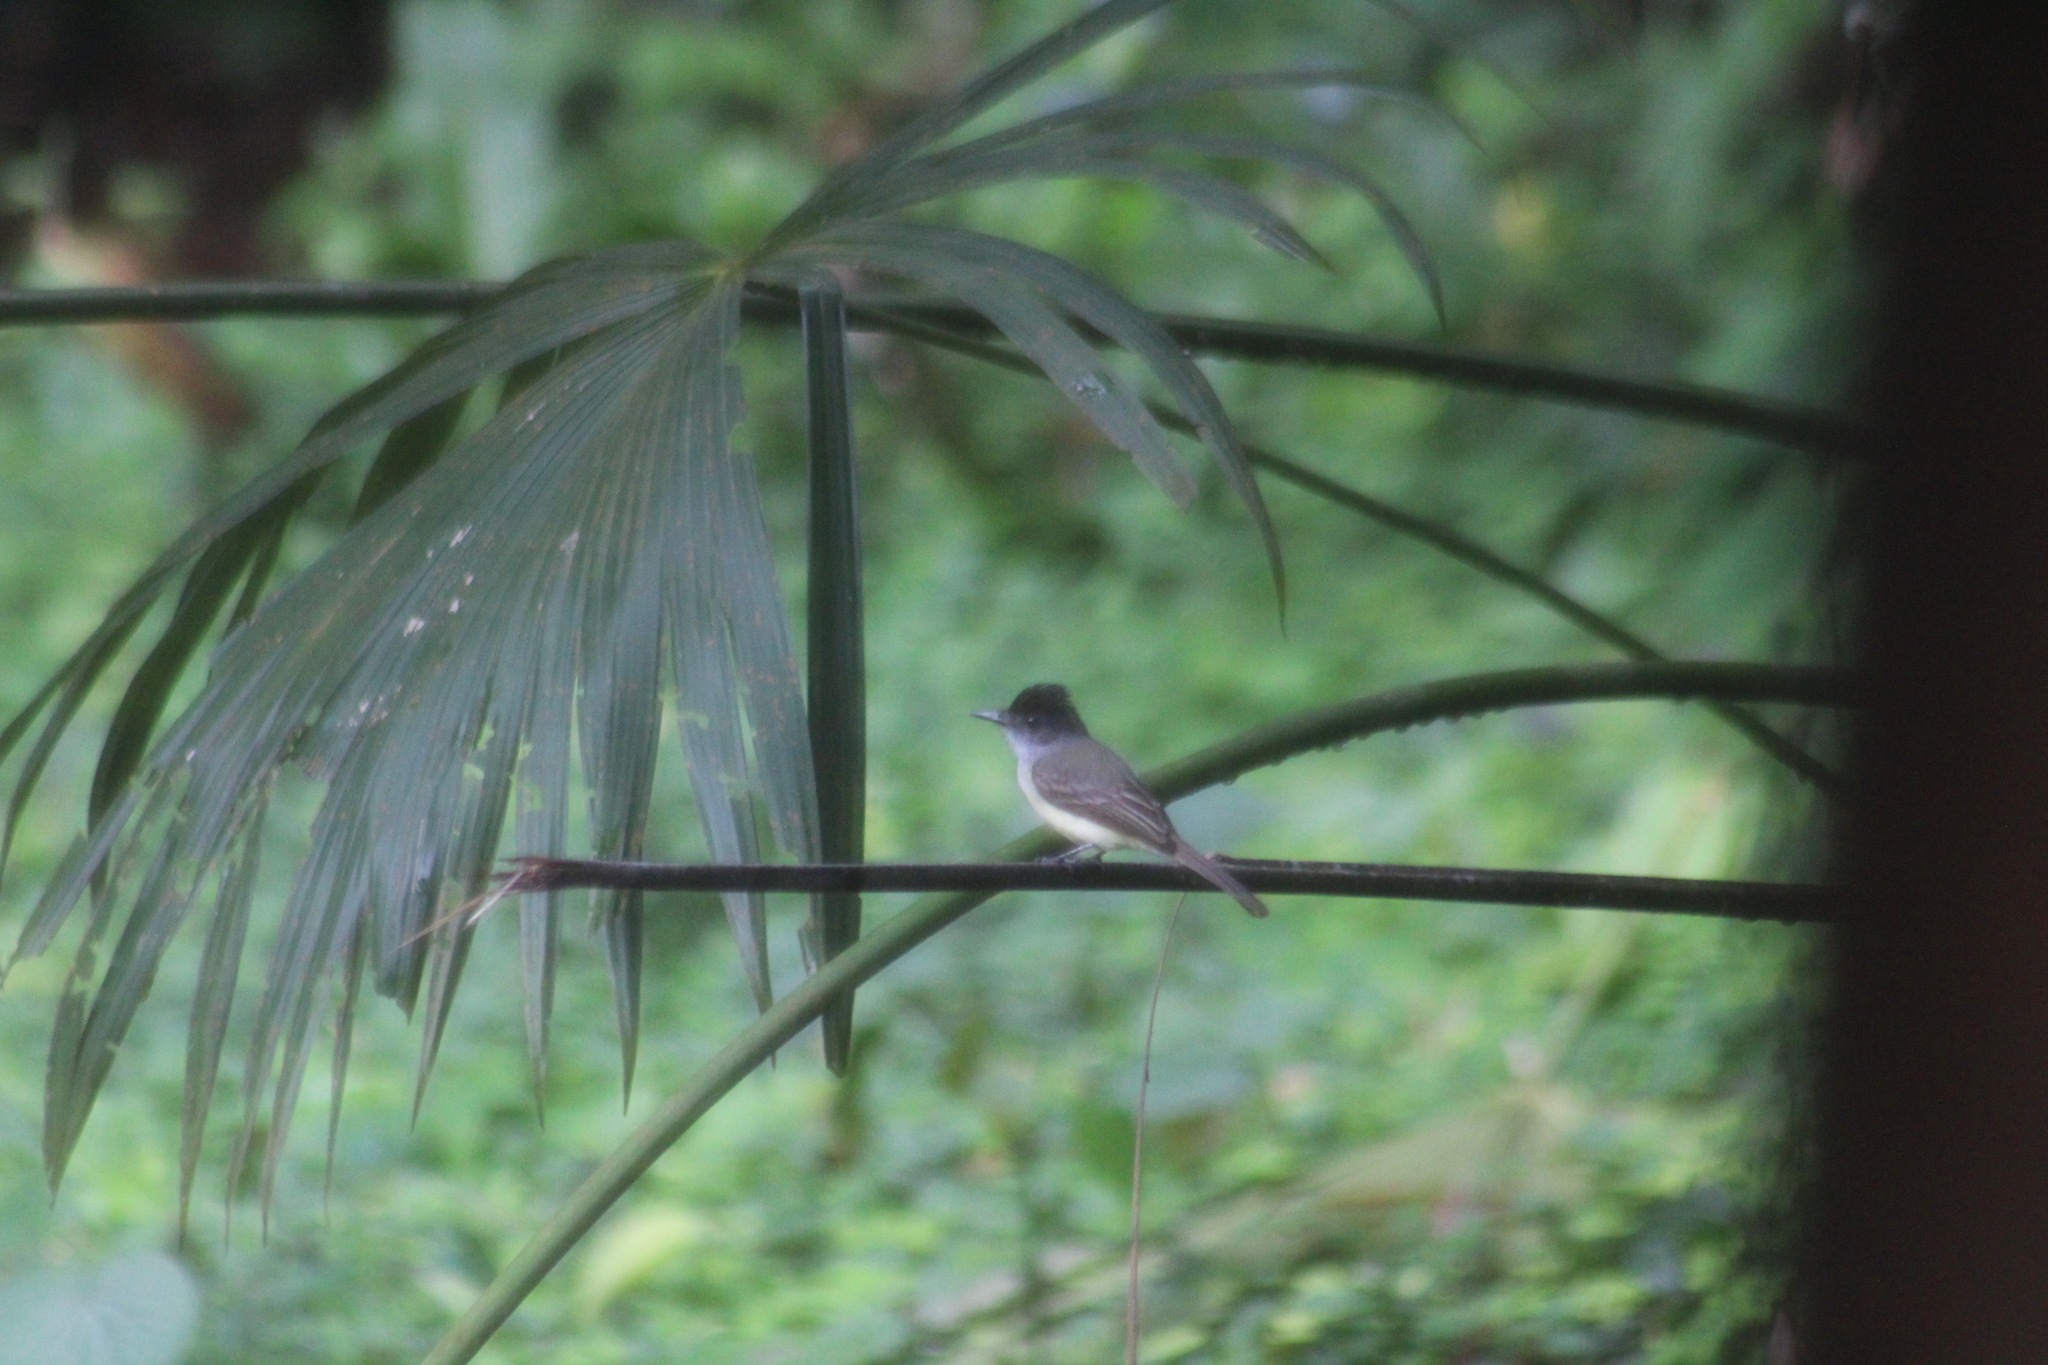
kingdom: Animalia
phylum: Chordata
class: Aves
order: Passeriformes
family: Tyrannidae
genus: Myiarchus
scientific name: Myiarchus tuberculifer
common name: Dusky-capped flycatcher
